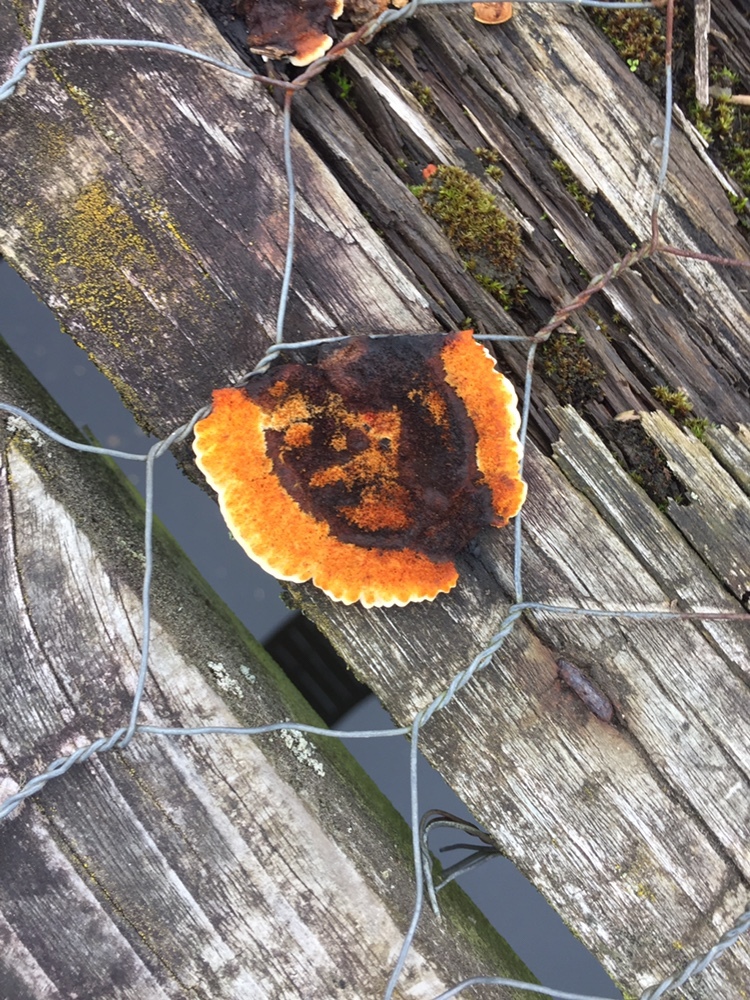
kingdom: Fungi
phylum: Basidiomycota
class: Agaricomycetes
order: Gloeophyllales
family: Gloeophyllaceae
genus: Gloeophyllum
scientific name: Gloeophyllum sepiarium
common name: Conifer mazegill
